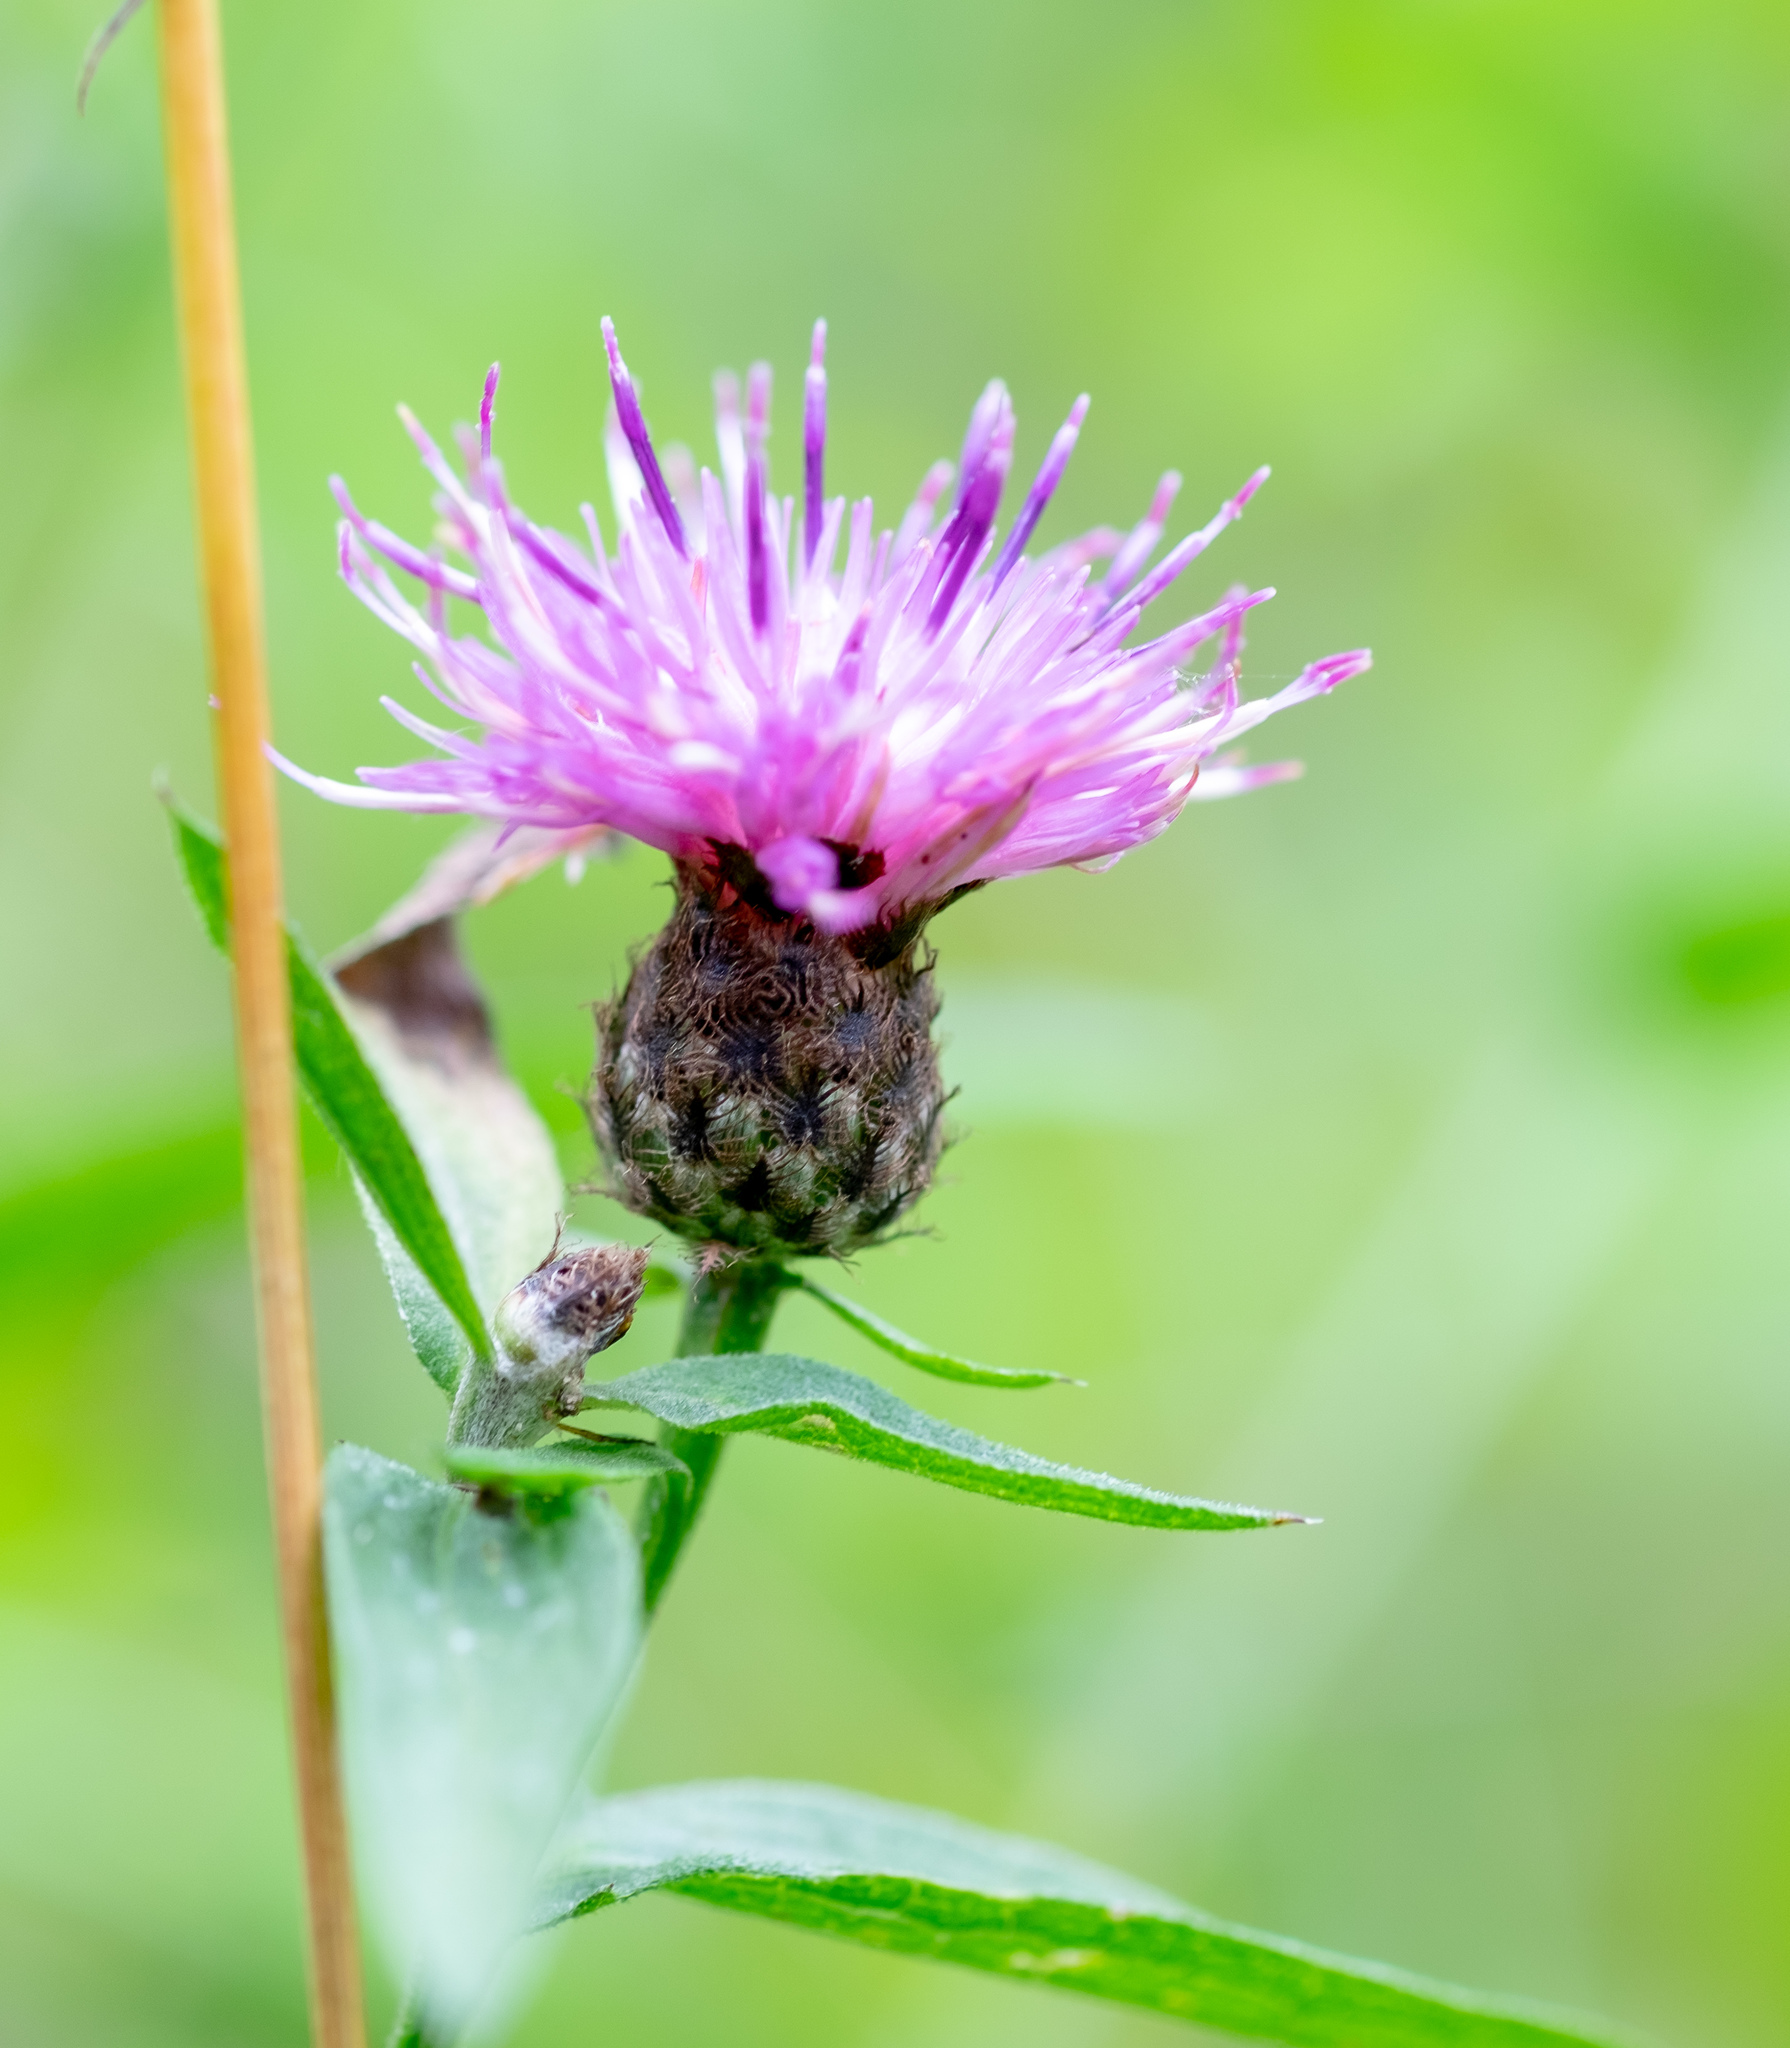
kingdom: Plantae
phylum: Tracheophyta
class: Magnoliopsida
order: Asterales
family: Asteraceae
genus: Centaurea
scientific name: Centaurea nigra
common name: Lesser knapweed
